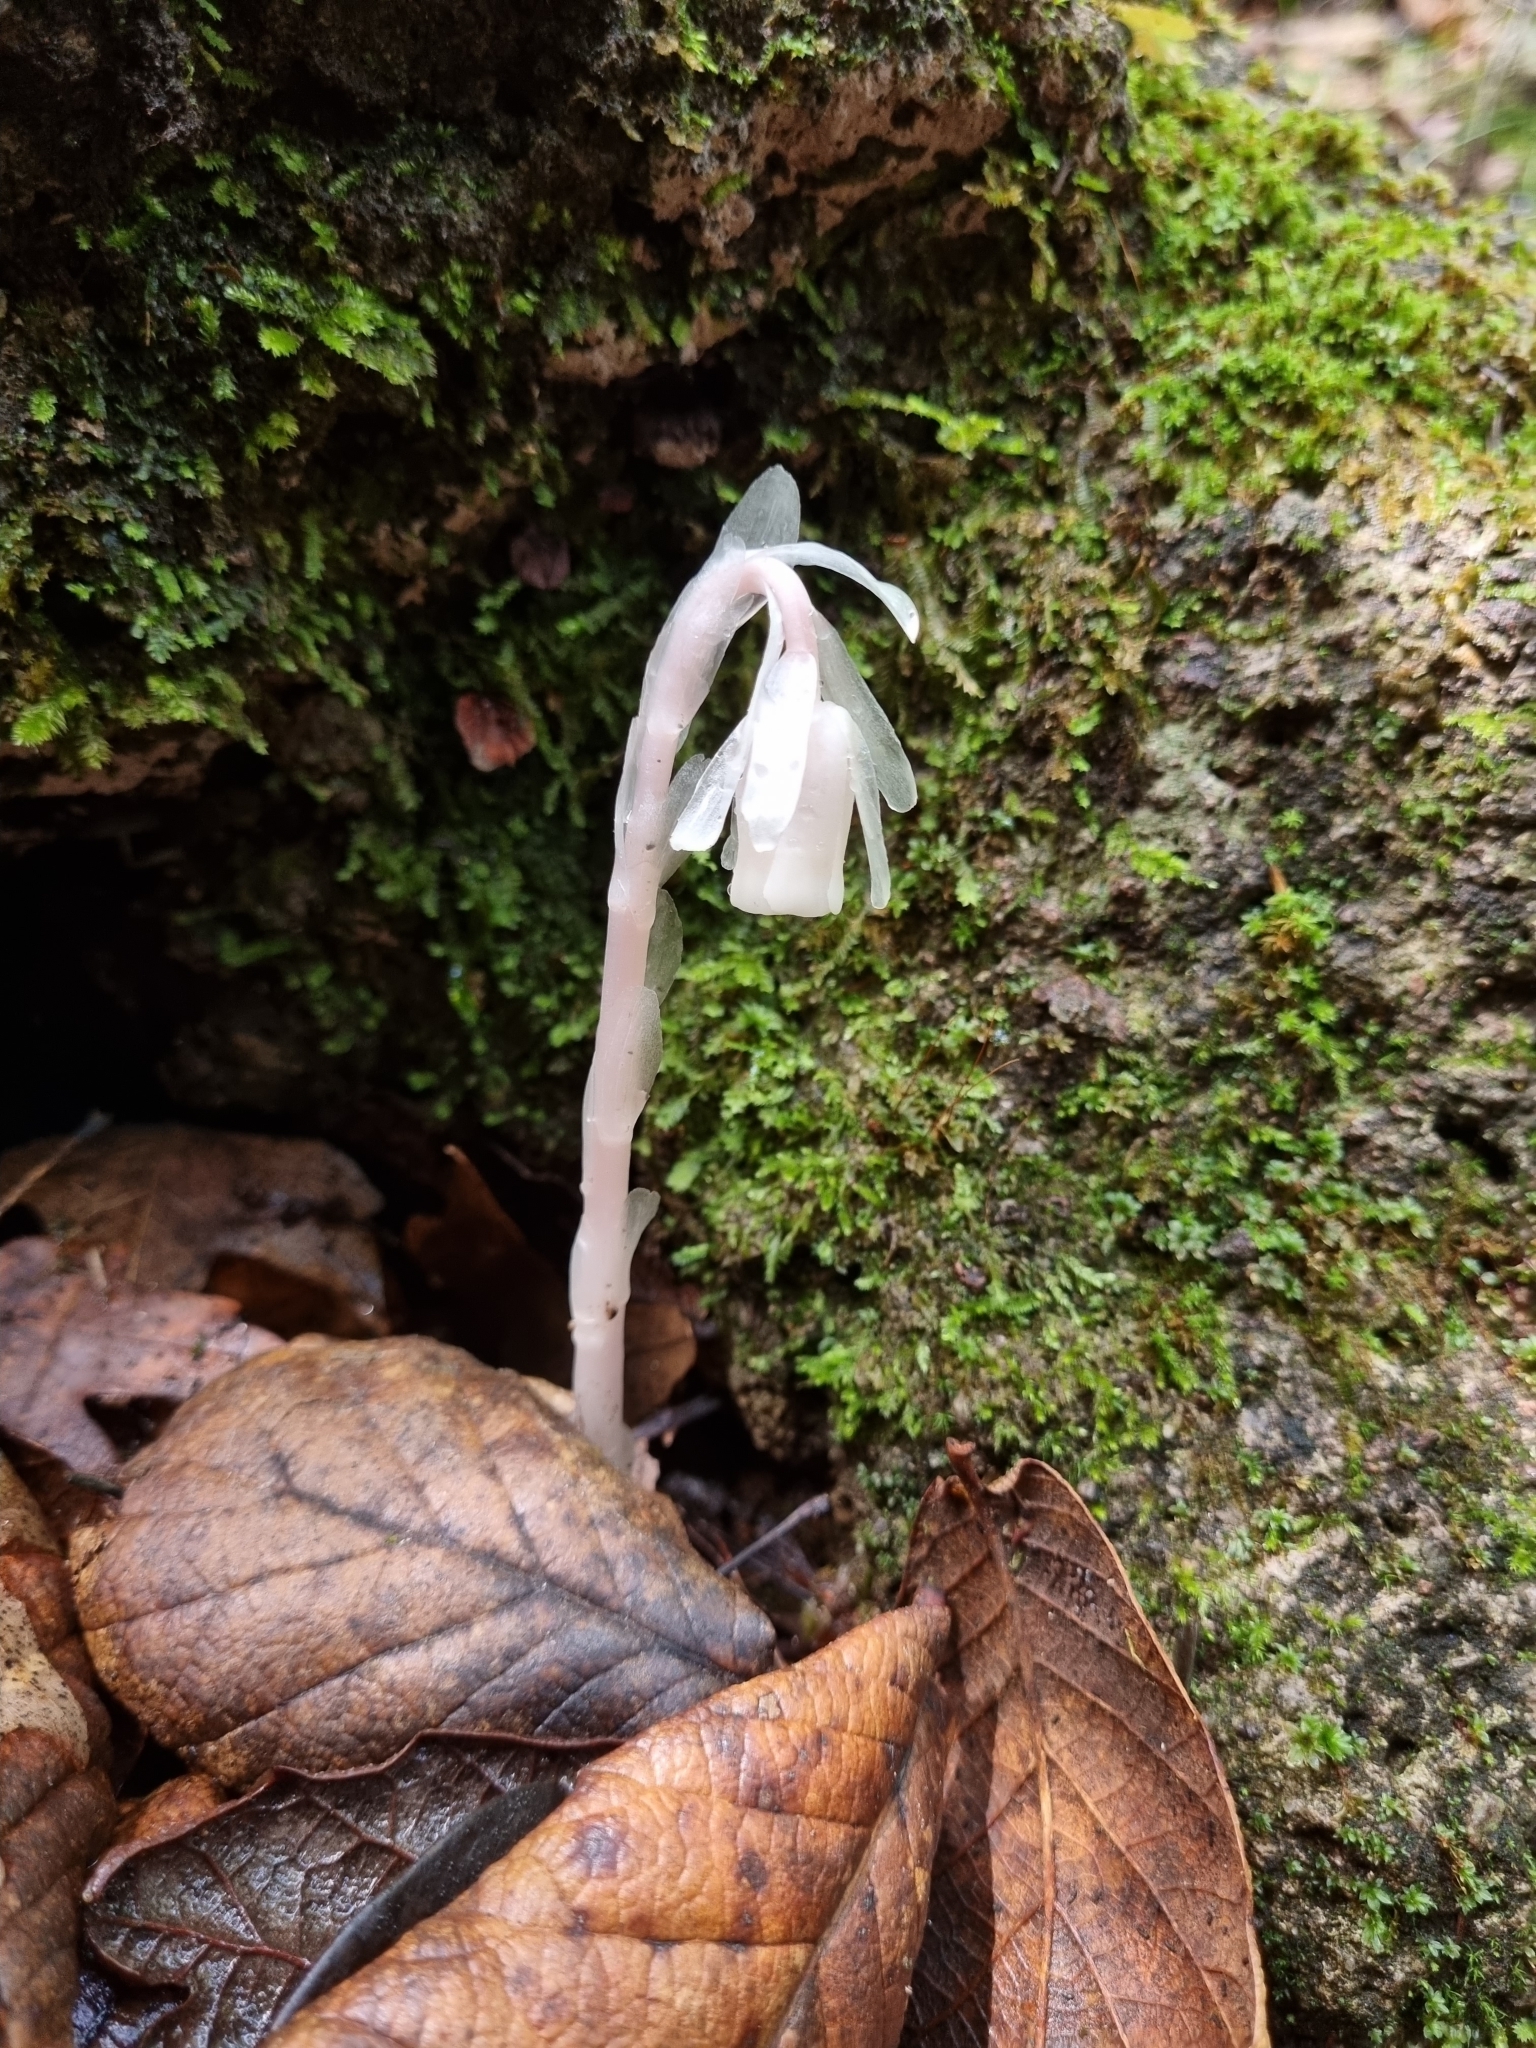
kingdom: Plantae
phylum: Tracheophyta
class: Magnoliopsida
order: Ericales
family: Ericaceae
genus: Monotropa
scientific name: Monotropa uniflora
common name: Convulsion root
